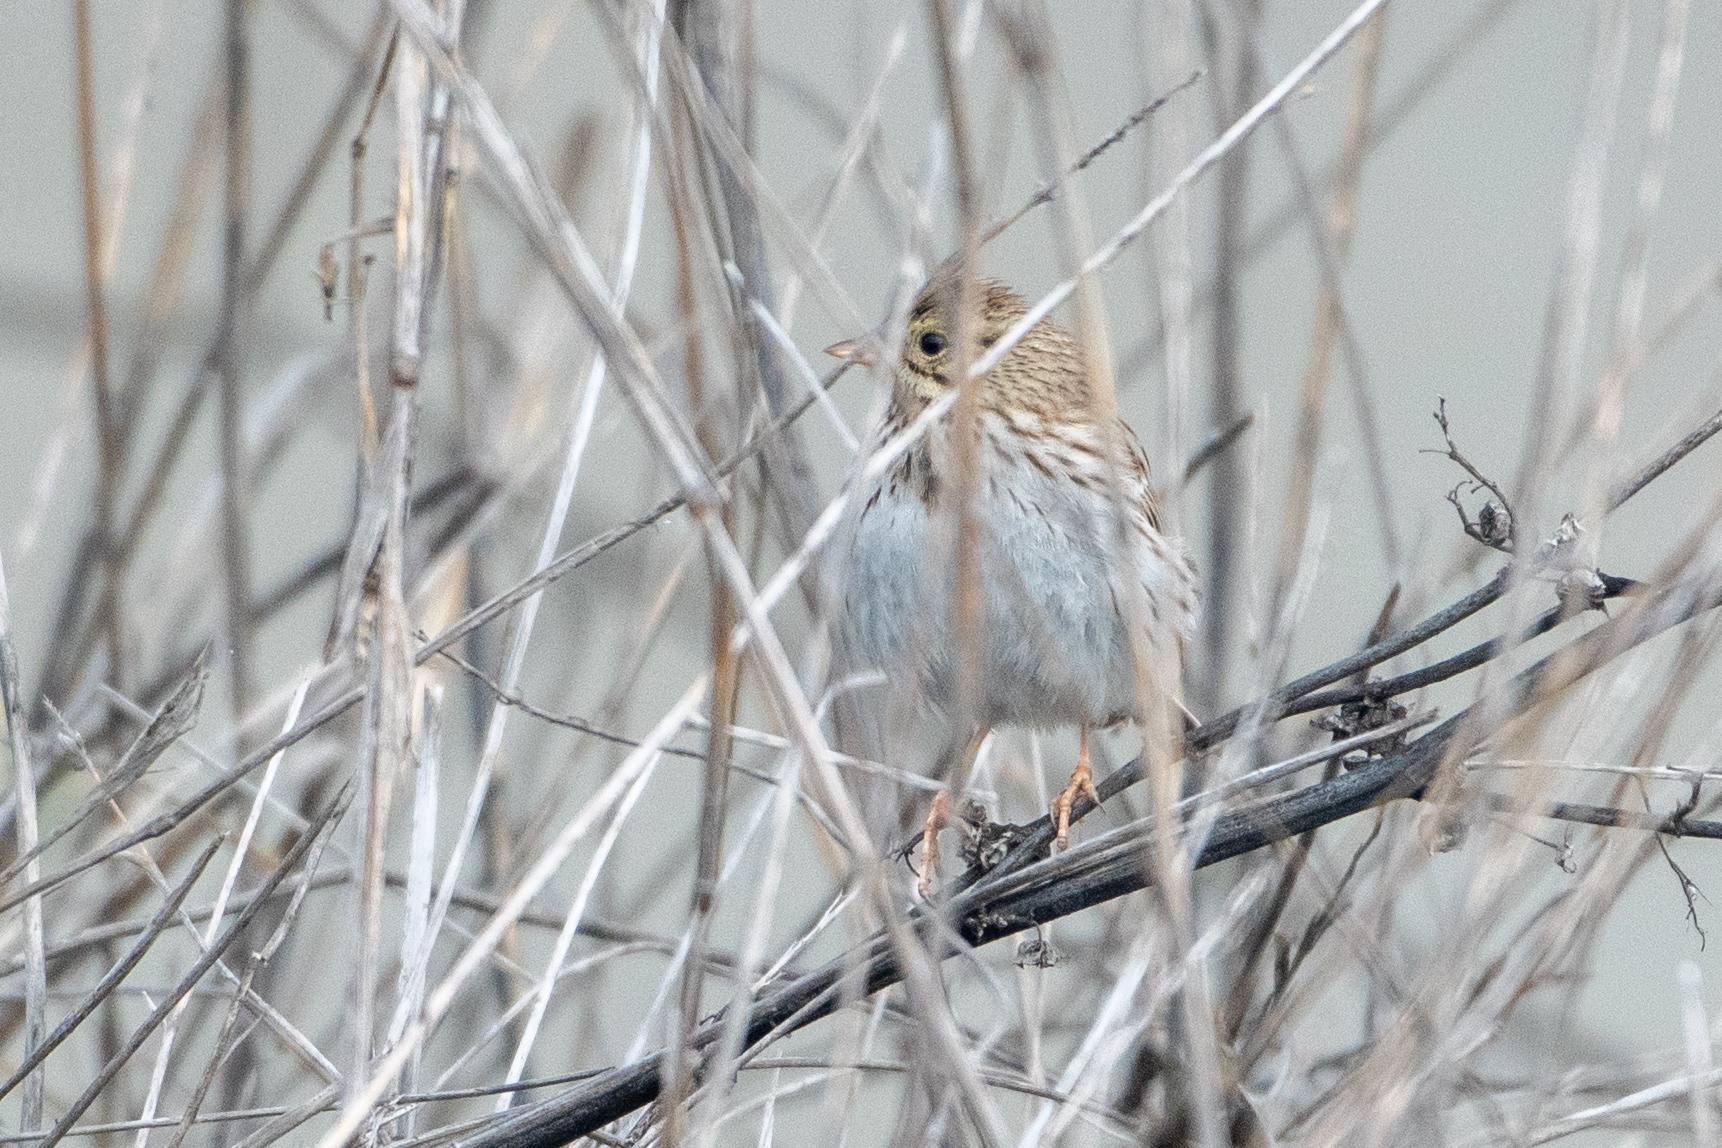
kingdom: Animalia
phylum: Chordata
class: Aves
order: Passeriformes
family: Passerellidae
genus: Passerculus
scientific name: Passerculus sandwichensis
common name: Savannah sparrow
